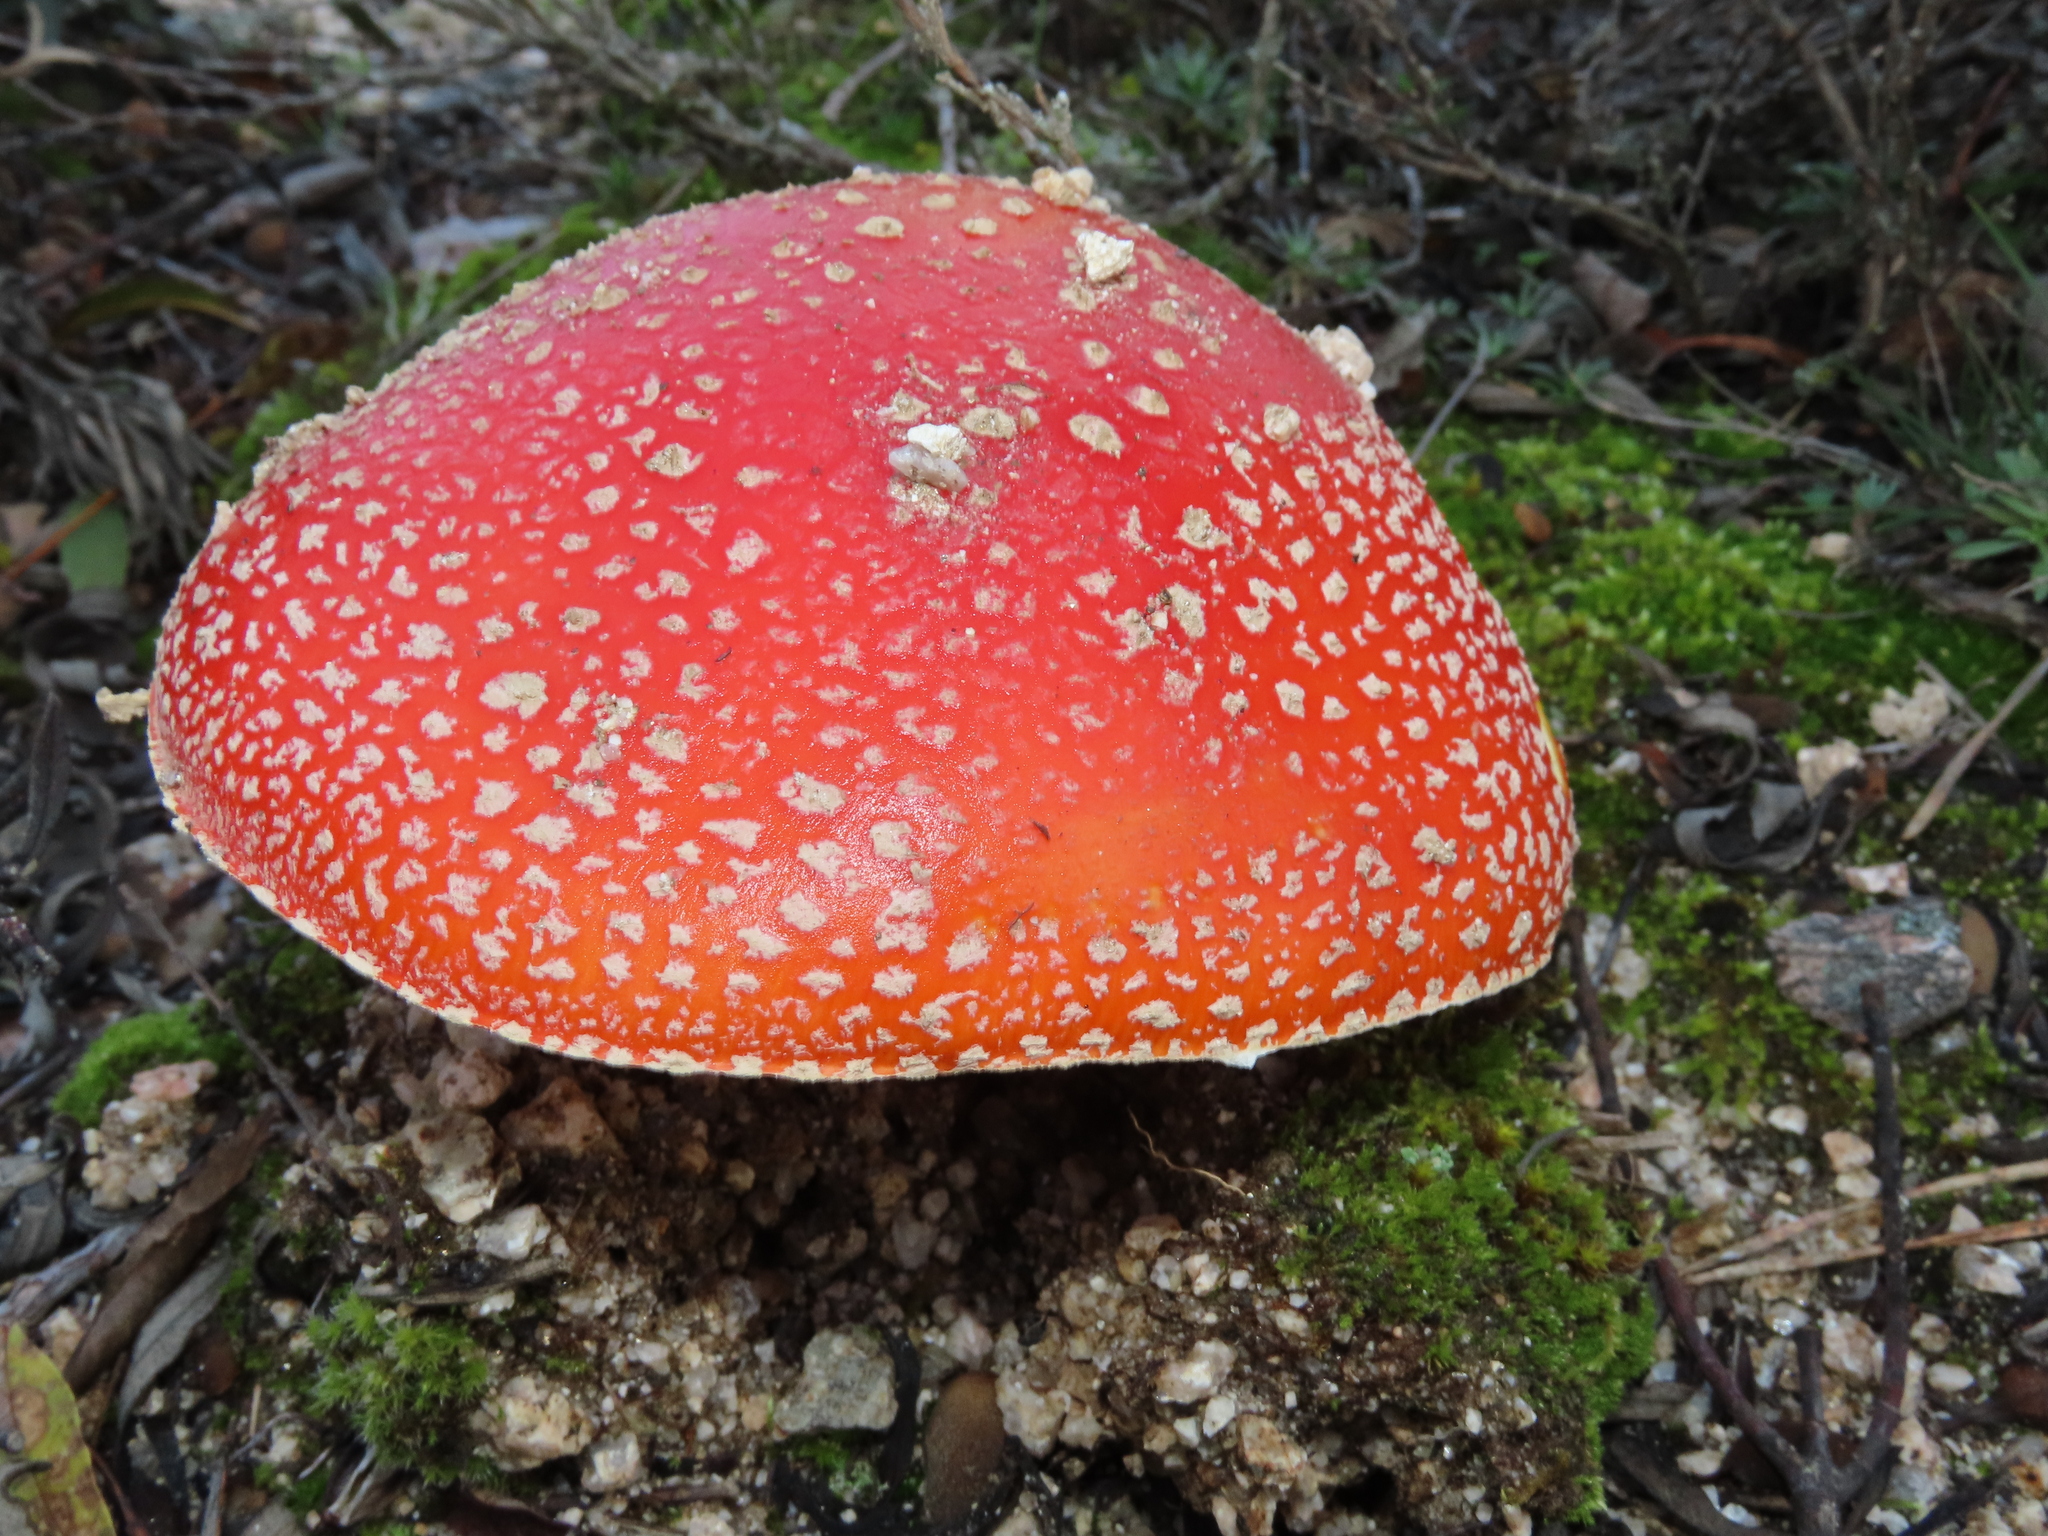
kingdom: Fungi
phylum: Basidiomycota
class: Agaricomycetes
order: Agaricales
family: Amanitaceae
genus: Amanita
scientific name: Amanita muscaria
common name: Fly agaric
